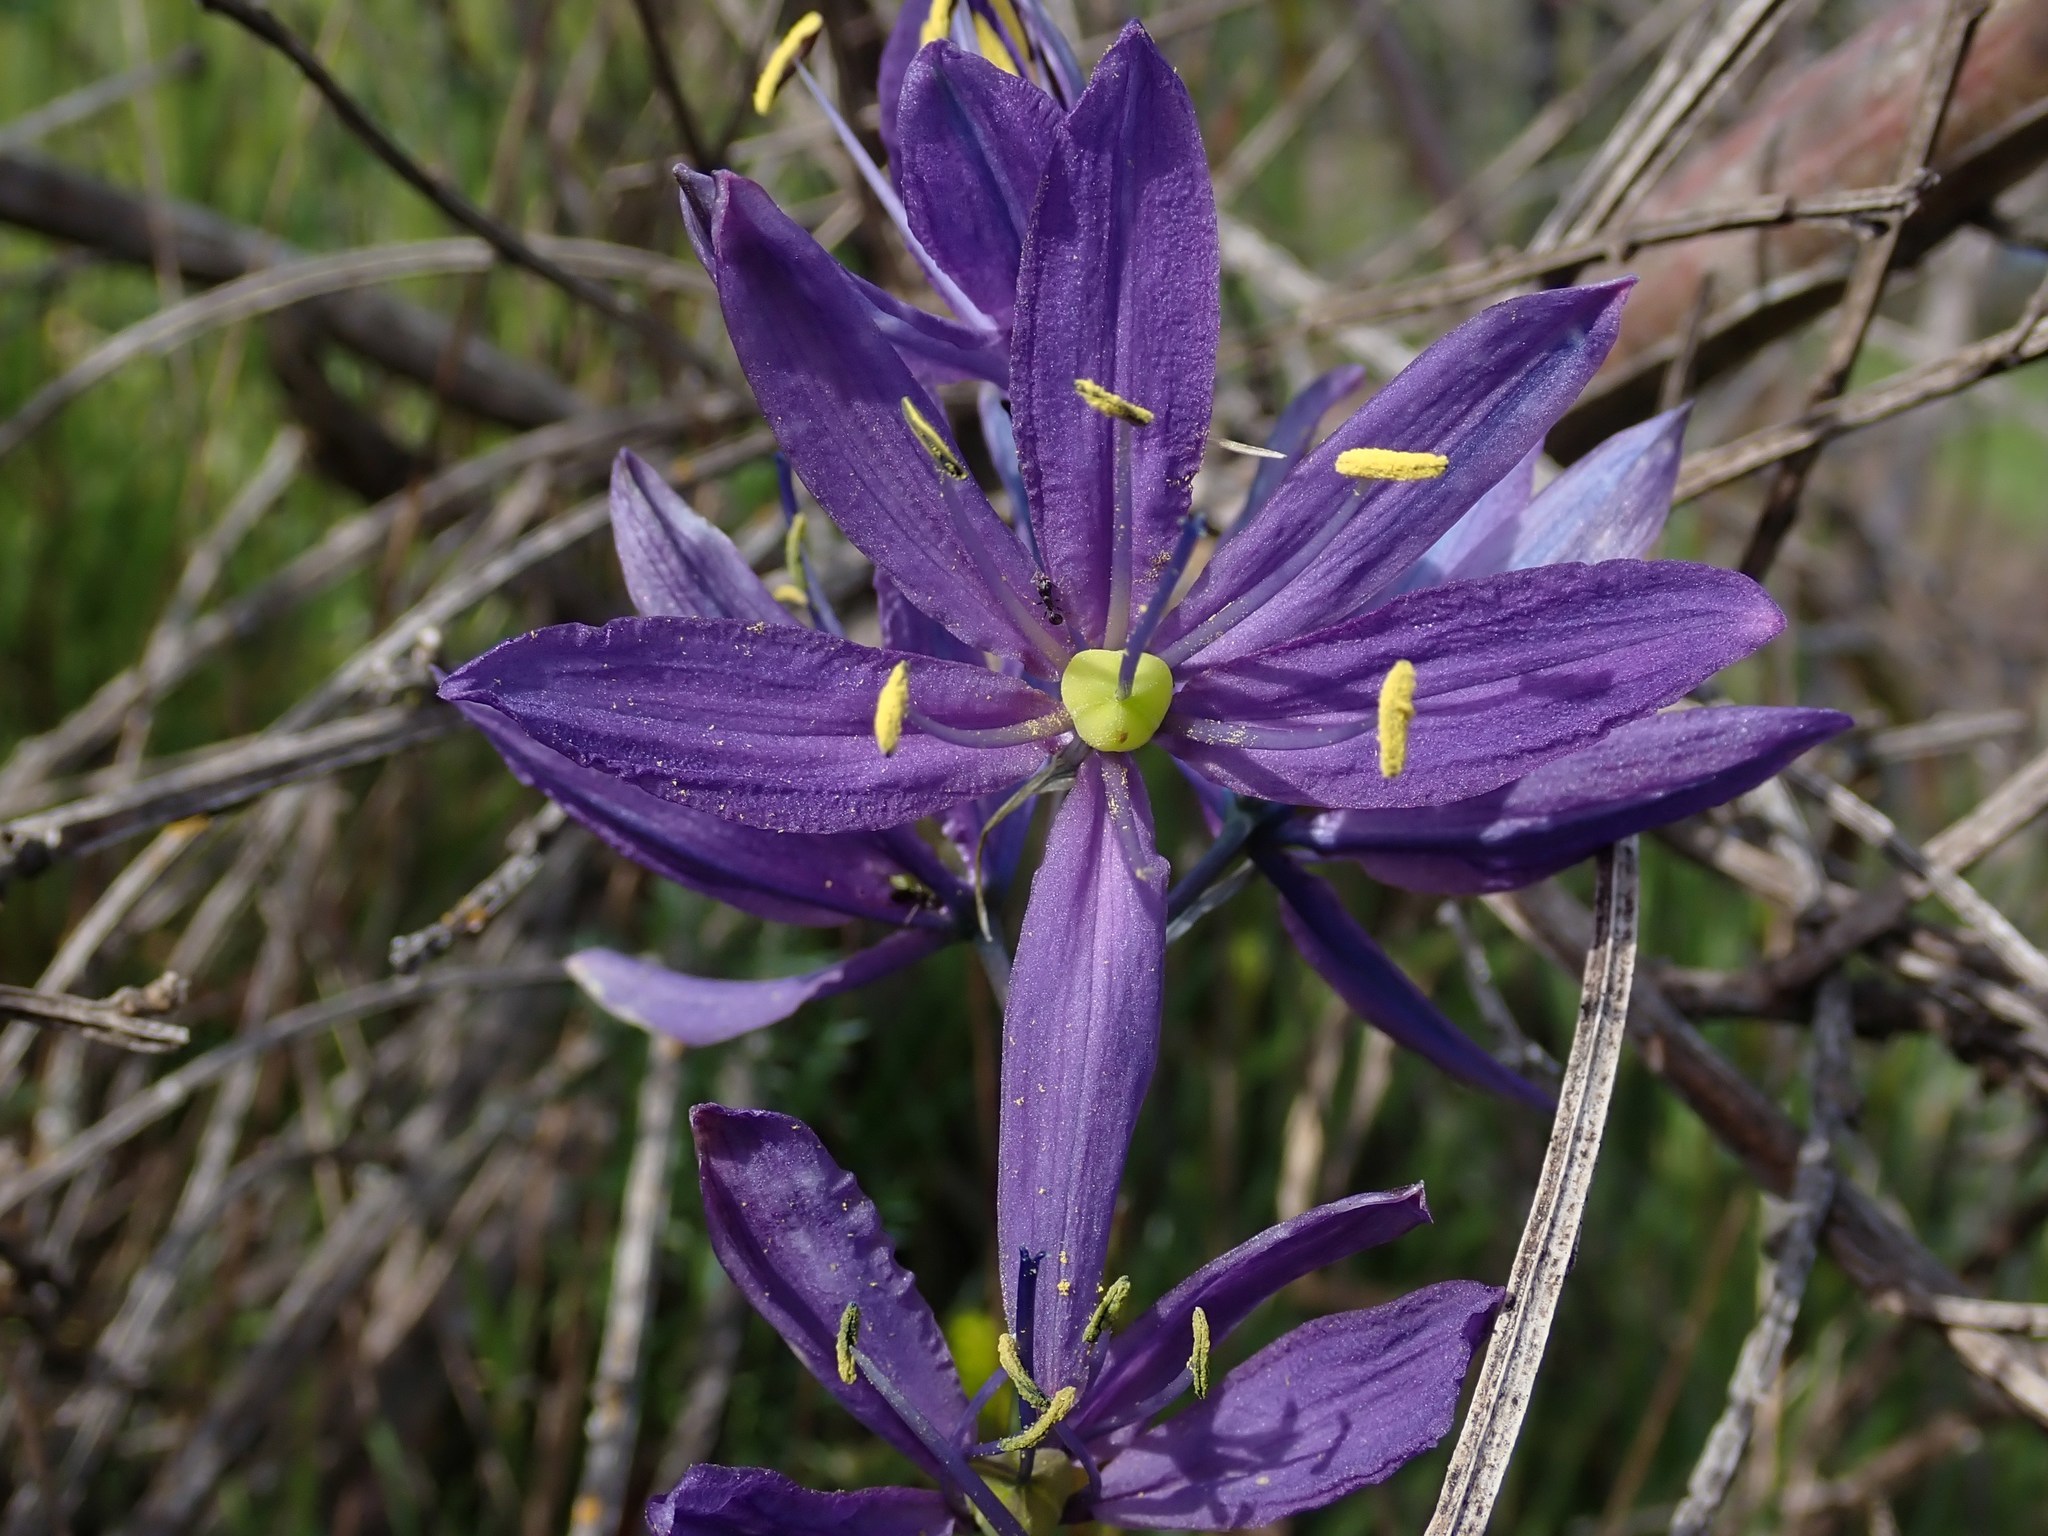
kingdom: Plantae
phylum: Tracheophyta
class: Liliopsida
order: Asparagales
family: Asparagaceae
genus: Camassia
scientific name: Camassia quamash
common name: Common camas
